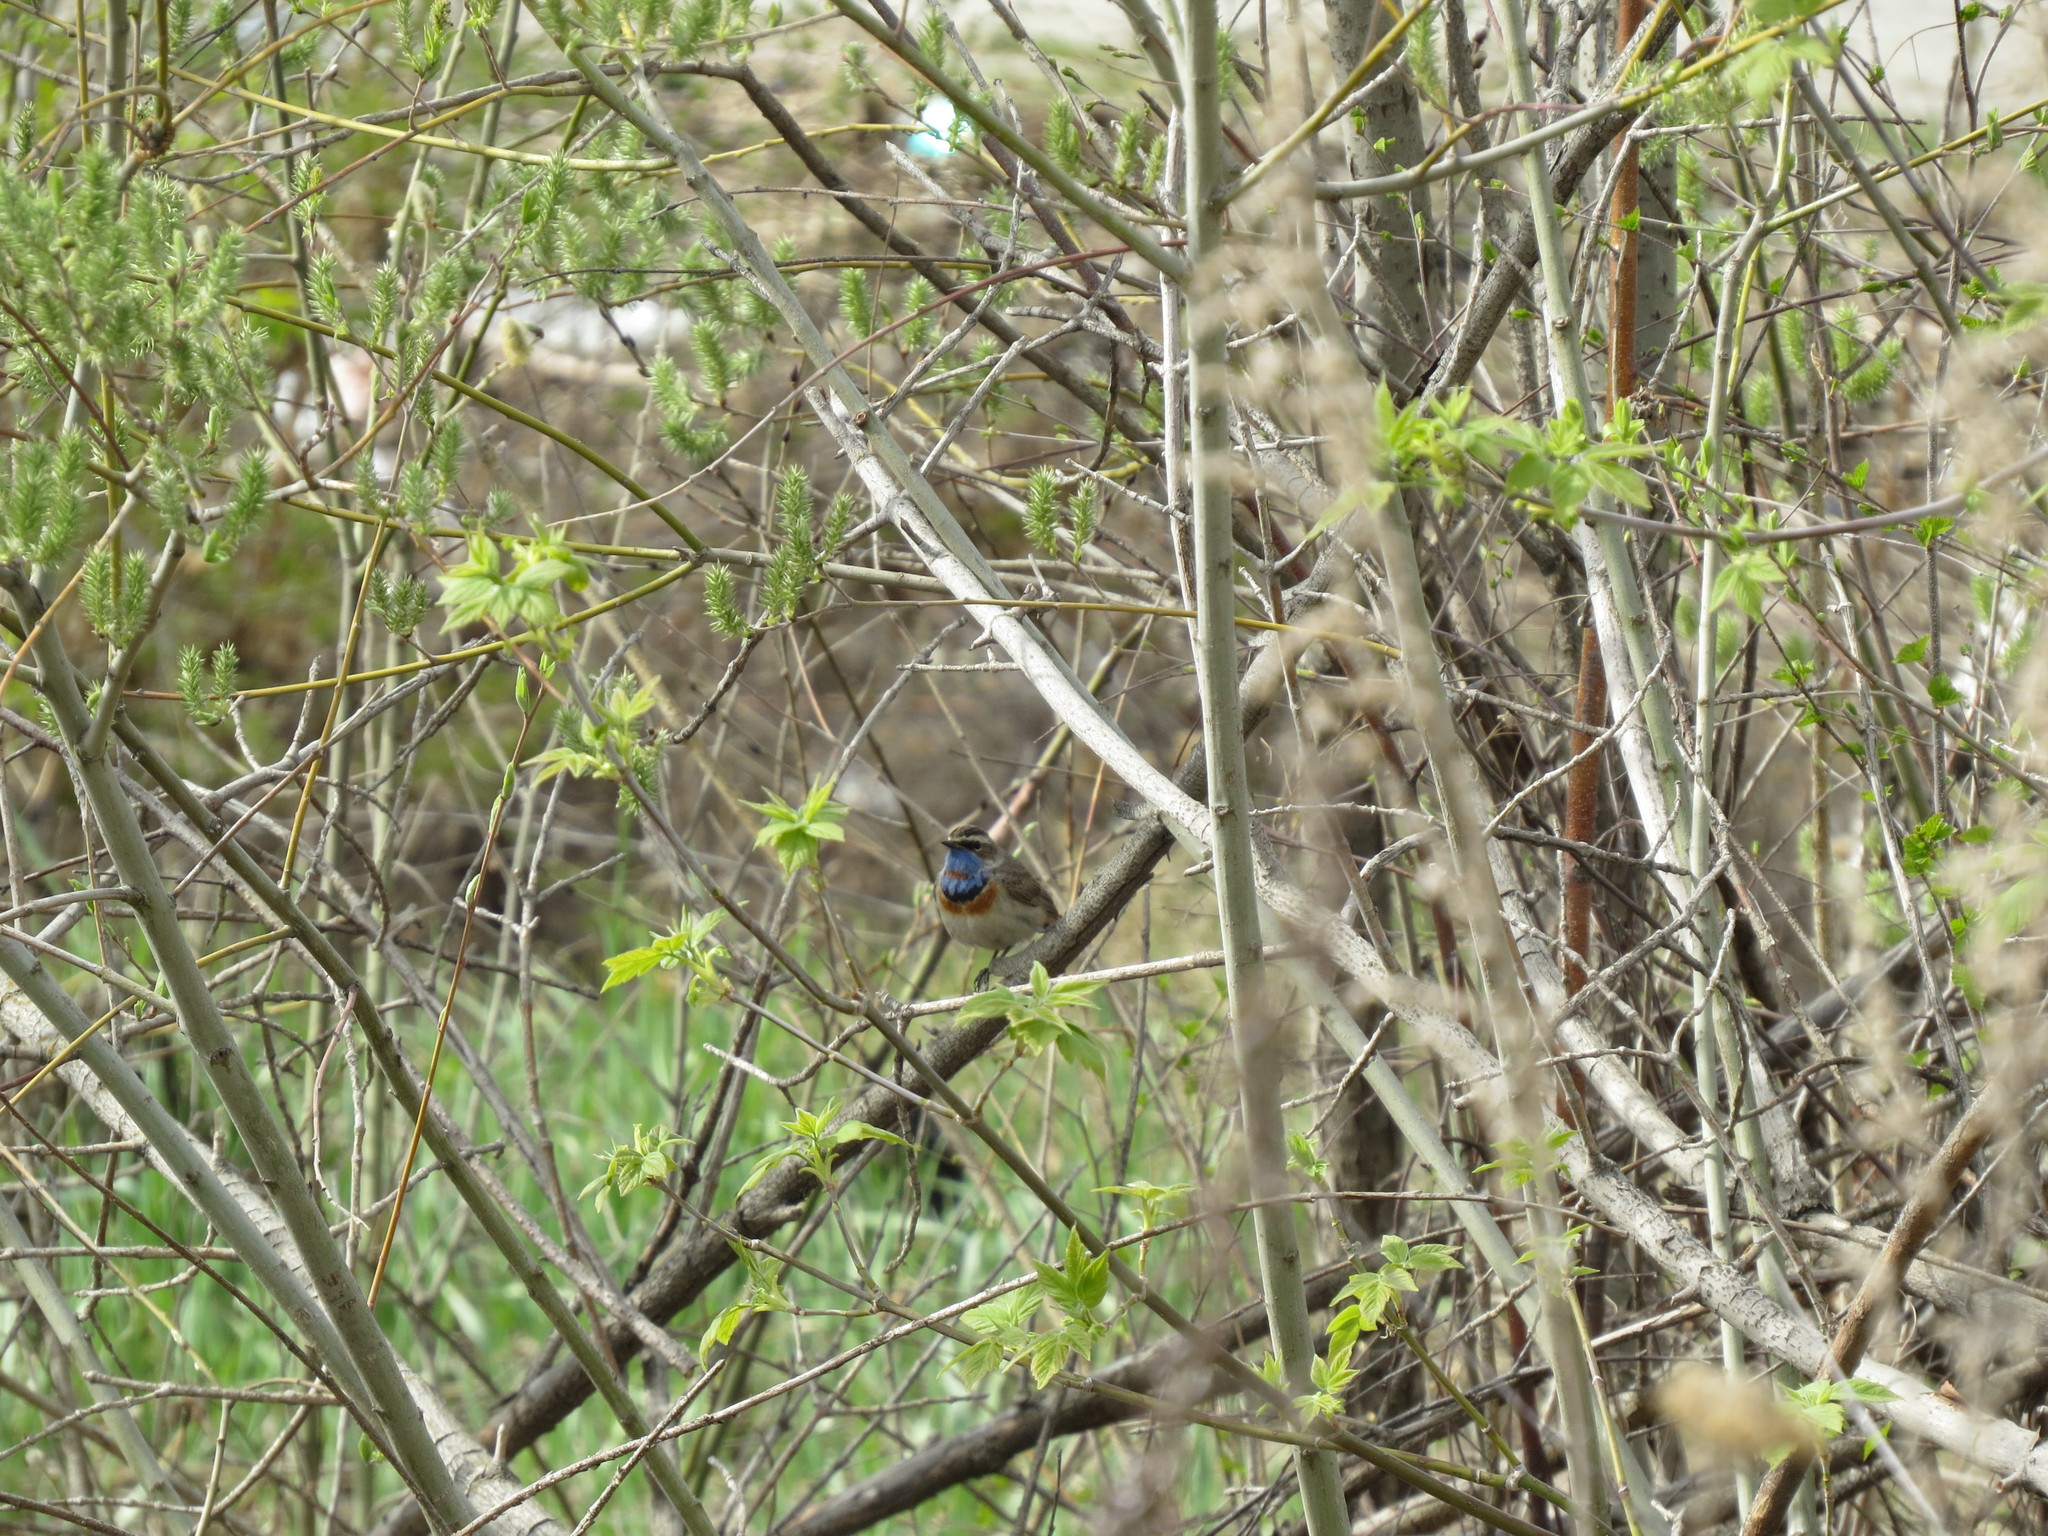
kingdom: Animalia
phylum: Chordata
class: Aves
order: Passeriformes
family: Muscicapidae
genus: Luscinia
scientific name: Luscinia svecica
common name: Bluethroat
